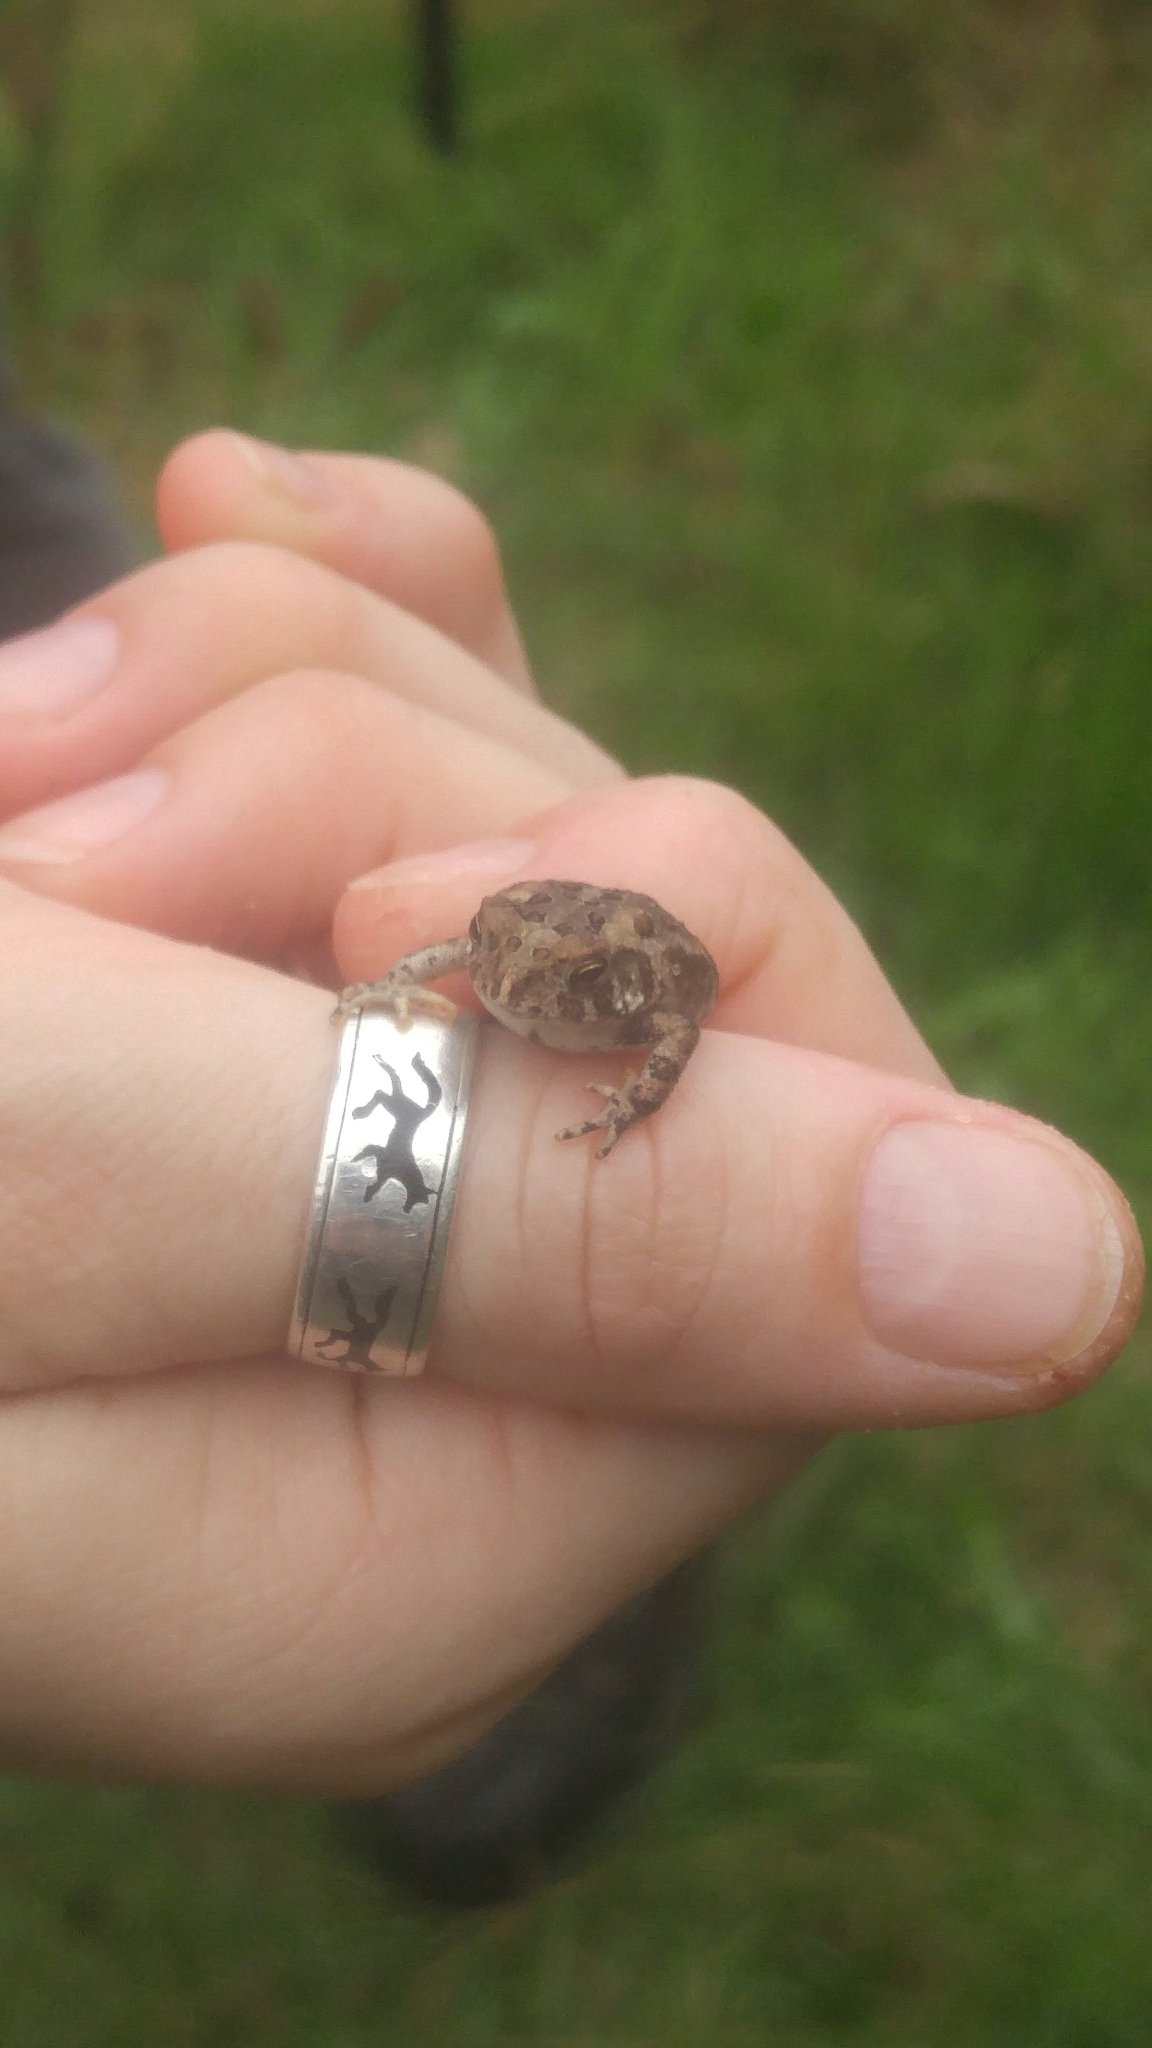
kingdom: Animalia
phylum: Chordata
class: Amphibia
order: Anura
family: Bufonidae
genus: Anaxyrus
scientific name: Anaxyrus americanus
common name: American toad
